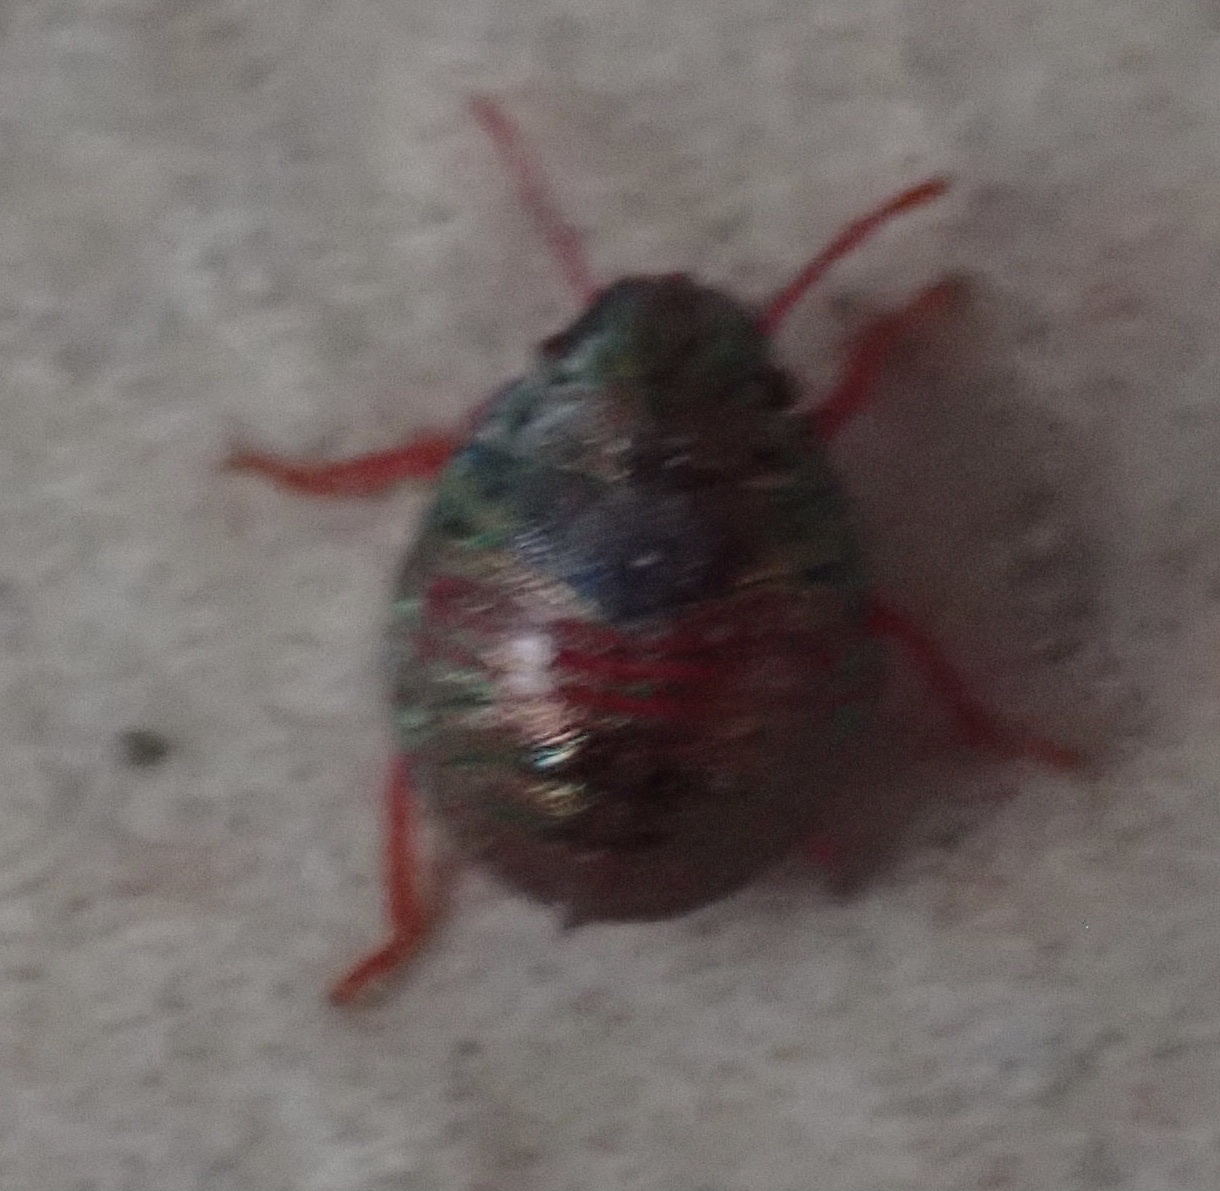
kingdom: Animalia
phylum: Arthropoda
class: Insecta
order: Hemiptera
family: Scutelleridae
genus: Solenosthedium
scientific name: Solenosthedium bilunatum
